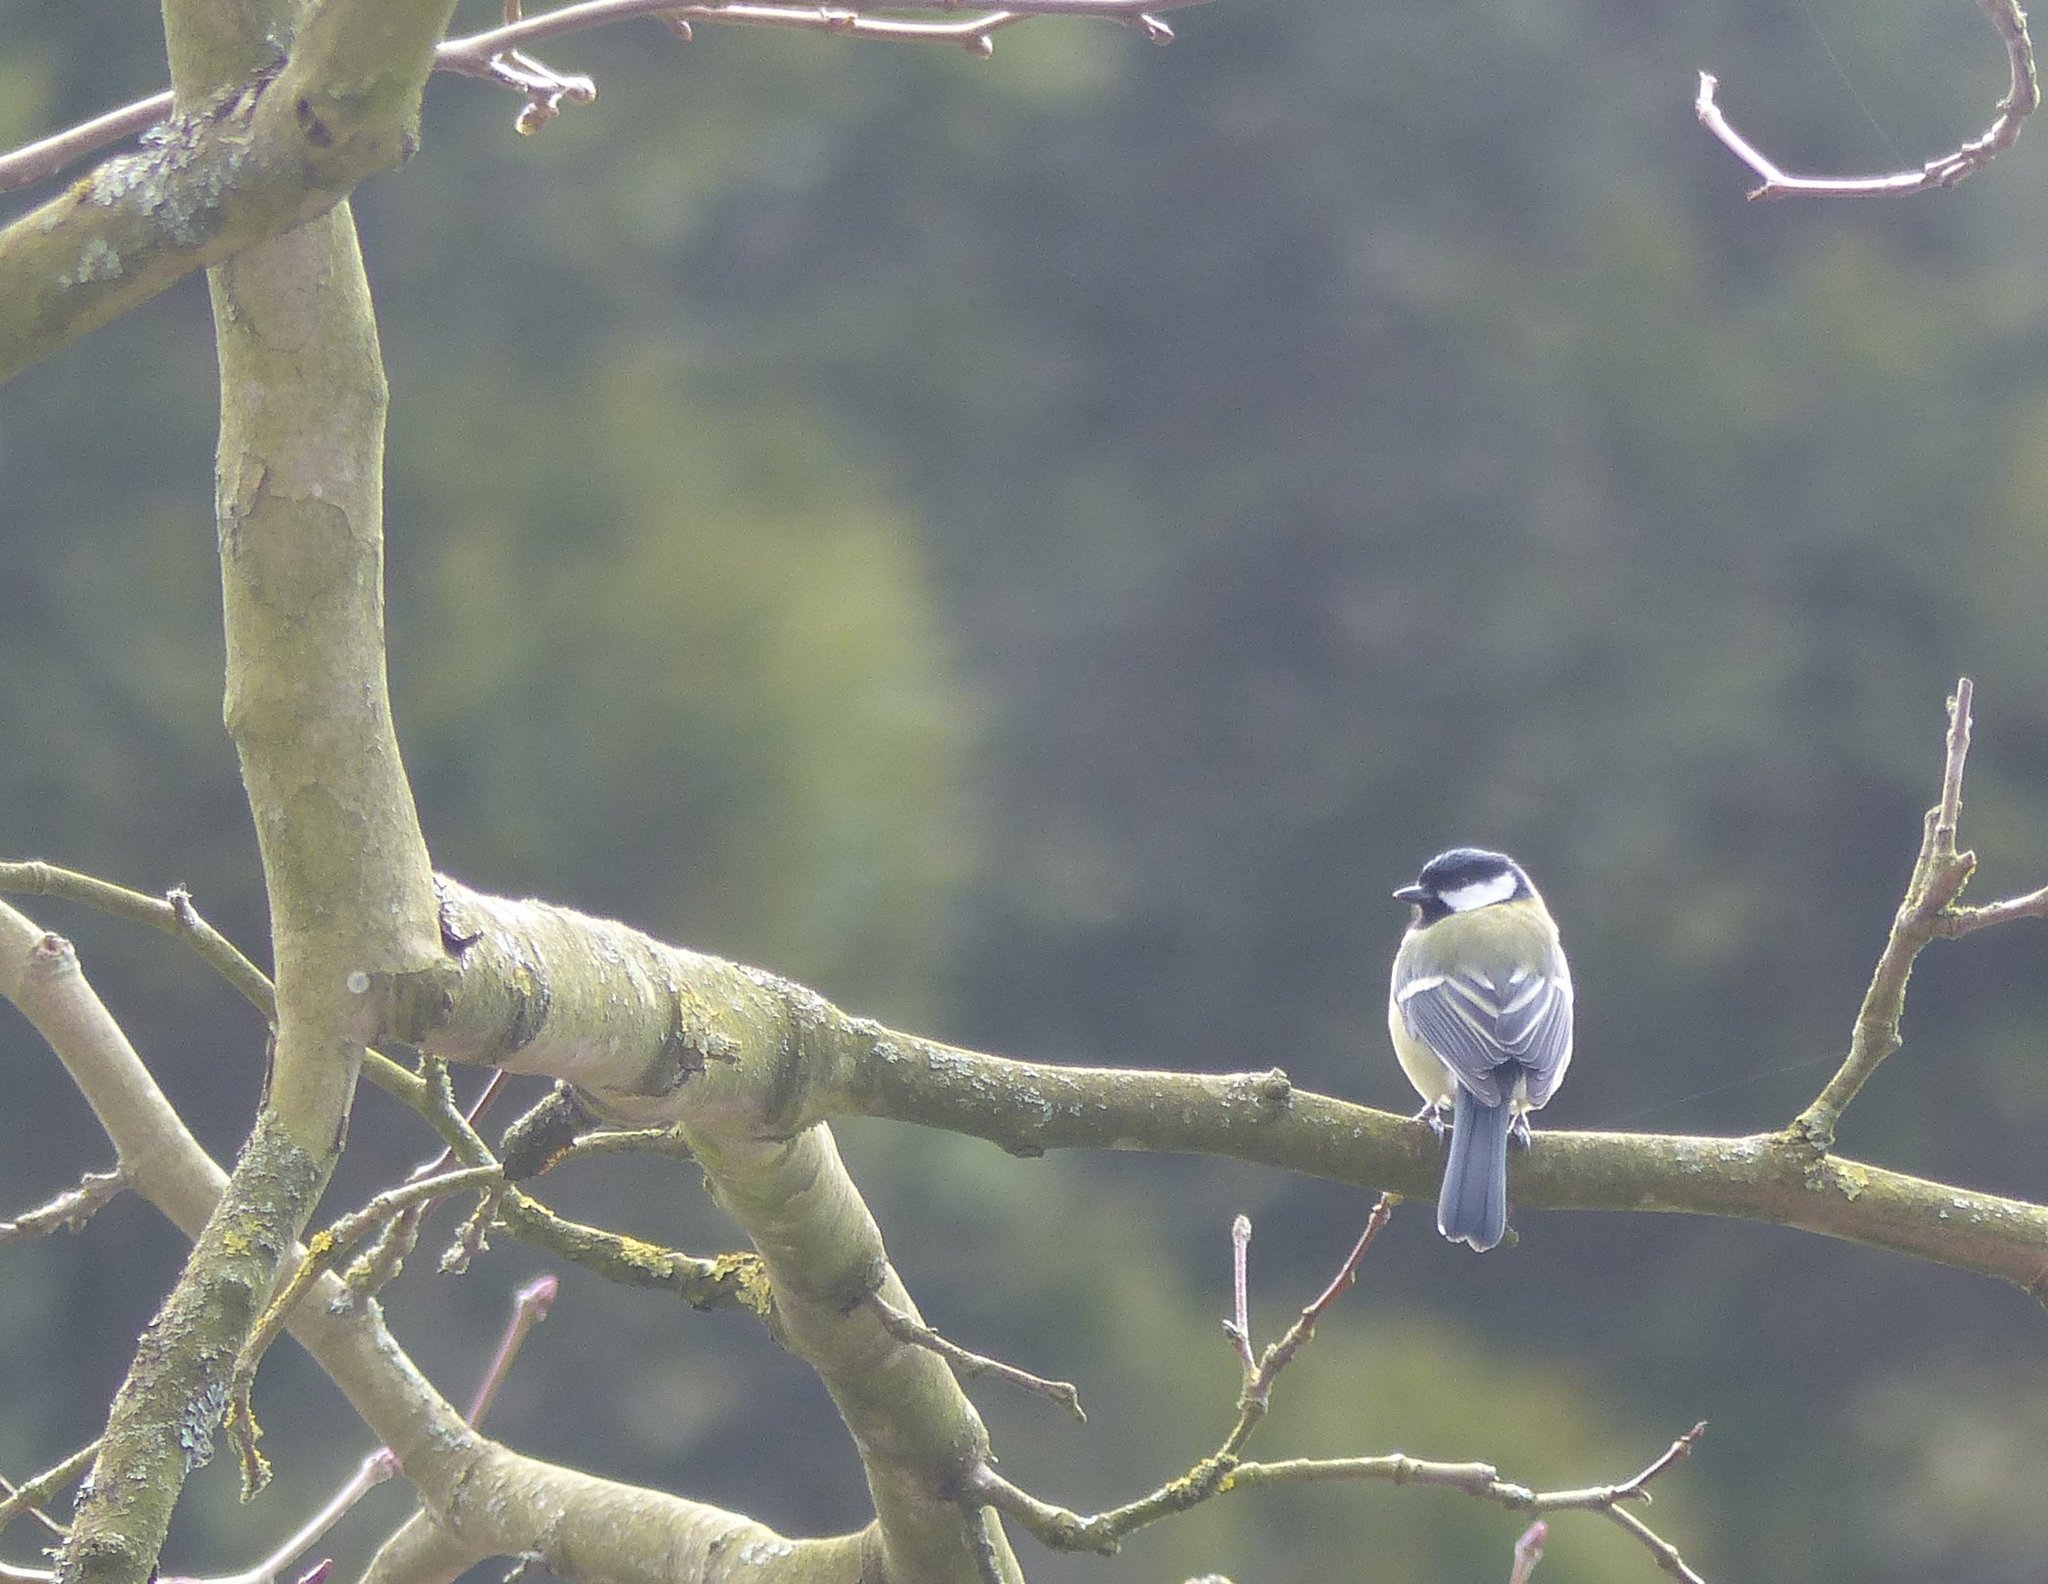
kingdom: Animalia
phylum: Chordata
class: Aves
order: Passeriformes
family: Paridae
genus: Parus
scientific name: Parus major
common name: Great tit
